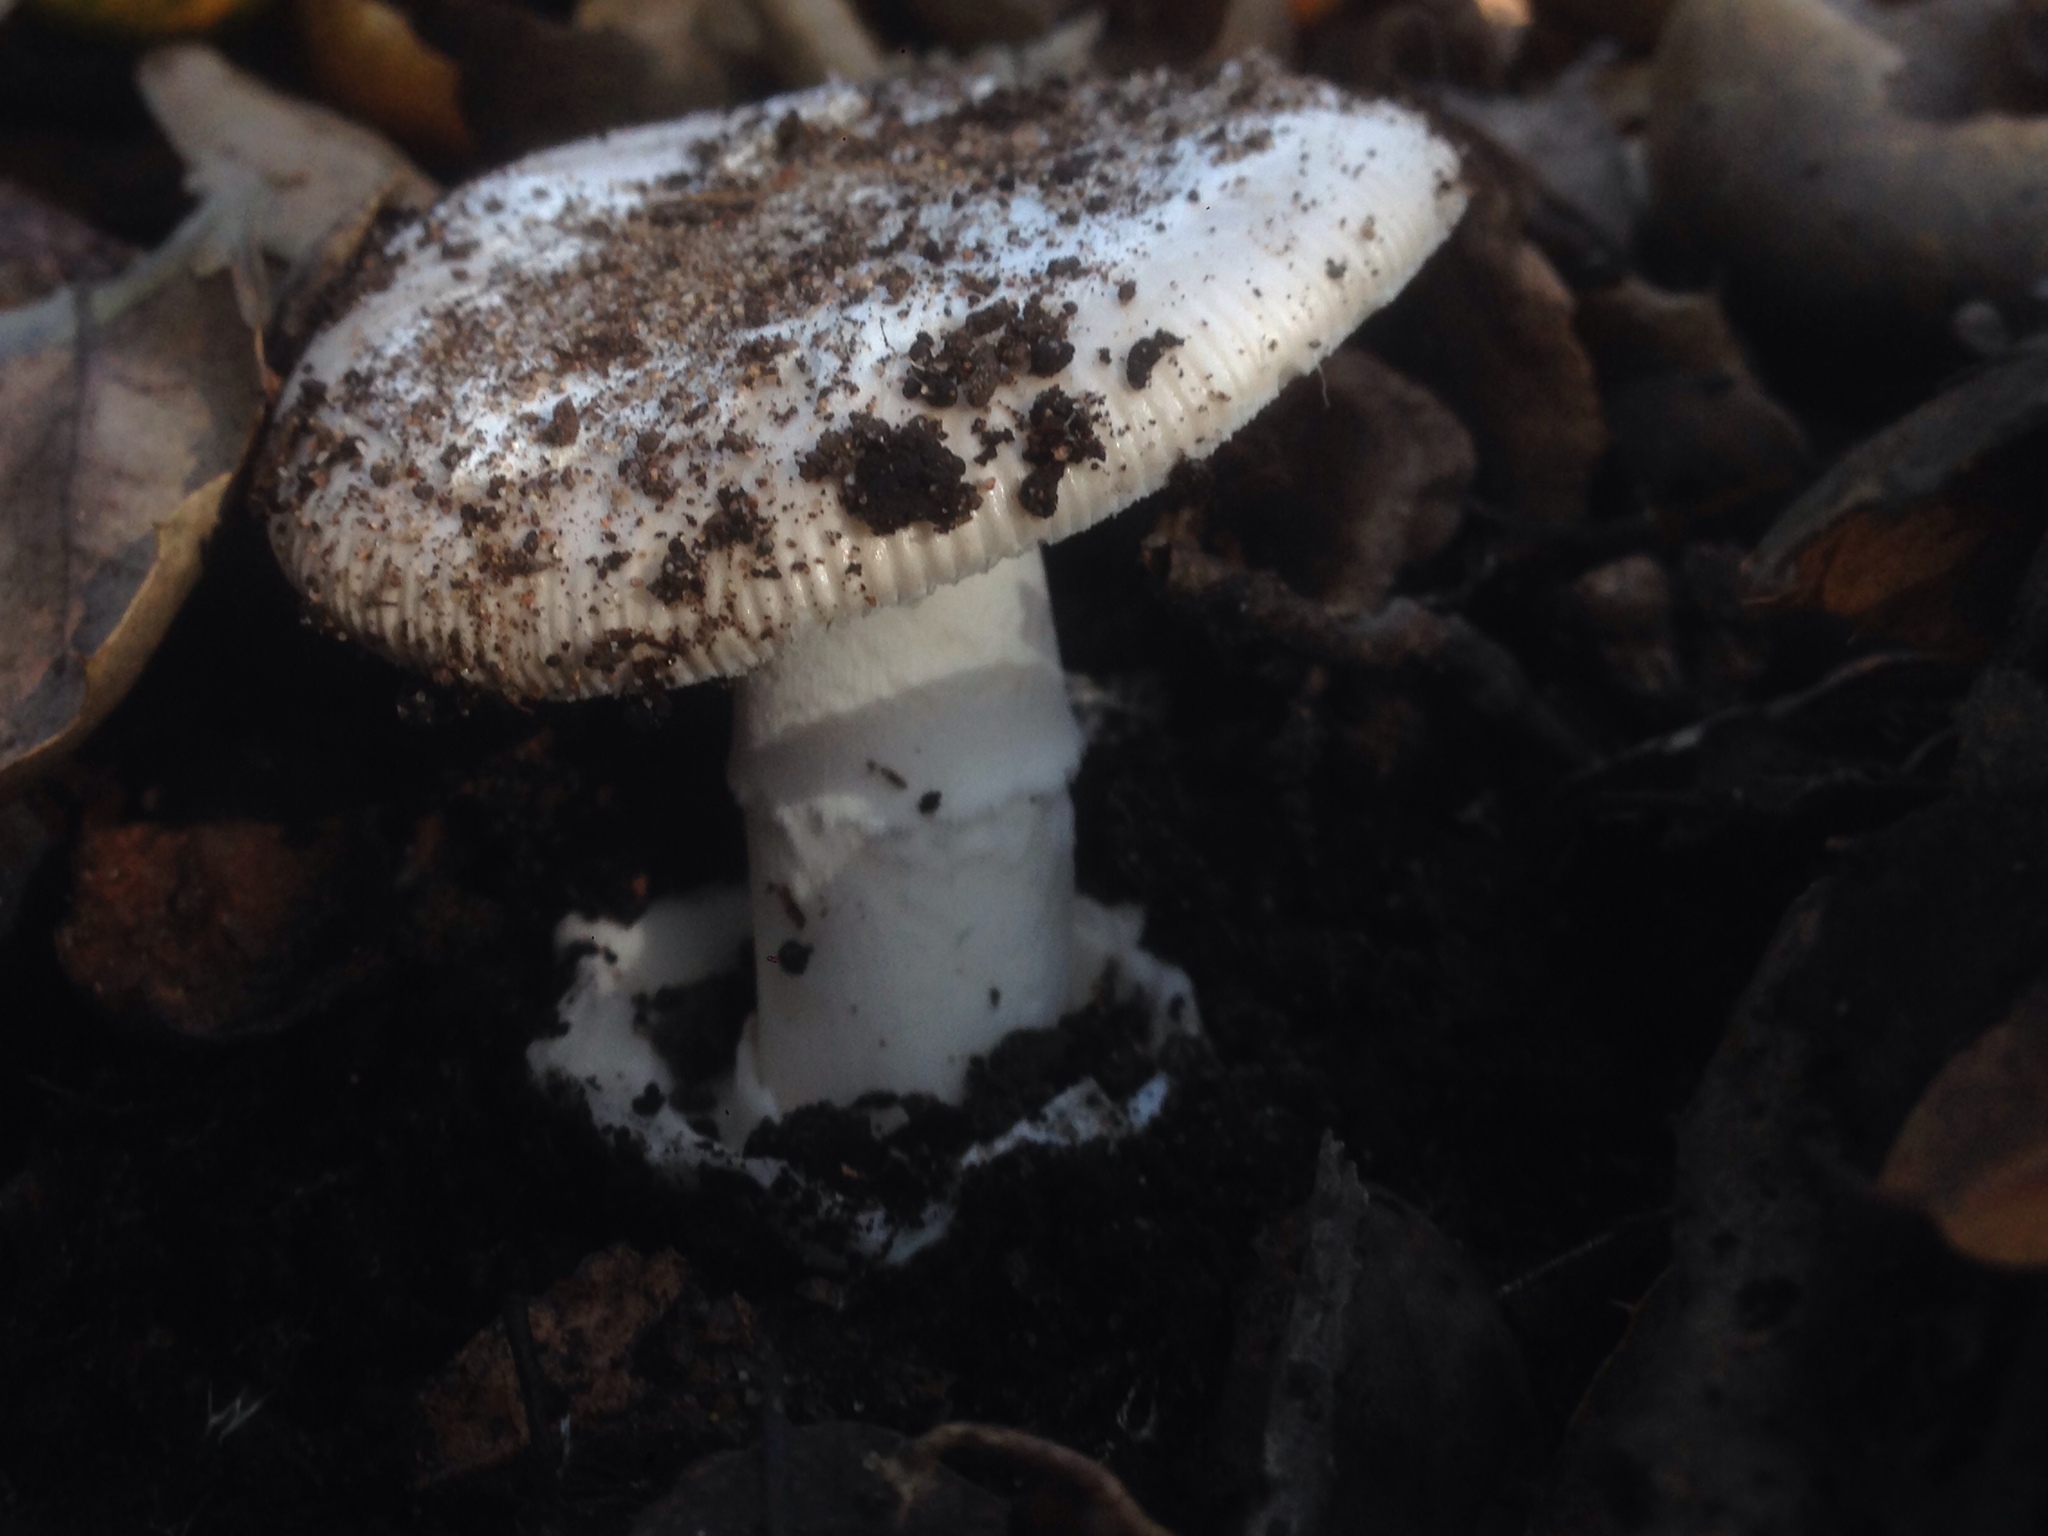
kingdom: Fungi
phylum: Basidiomycota
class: Agaricomycetes
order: Agaricales
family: Amanitaceae
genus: Amanita
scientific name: Amanita velosa
